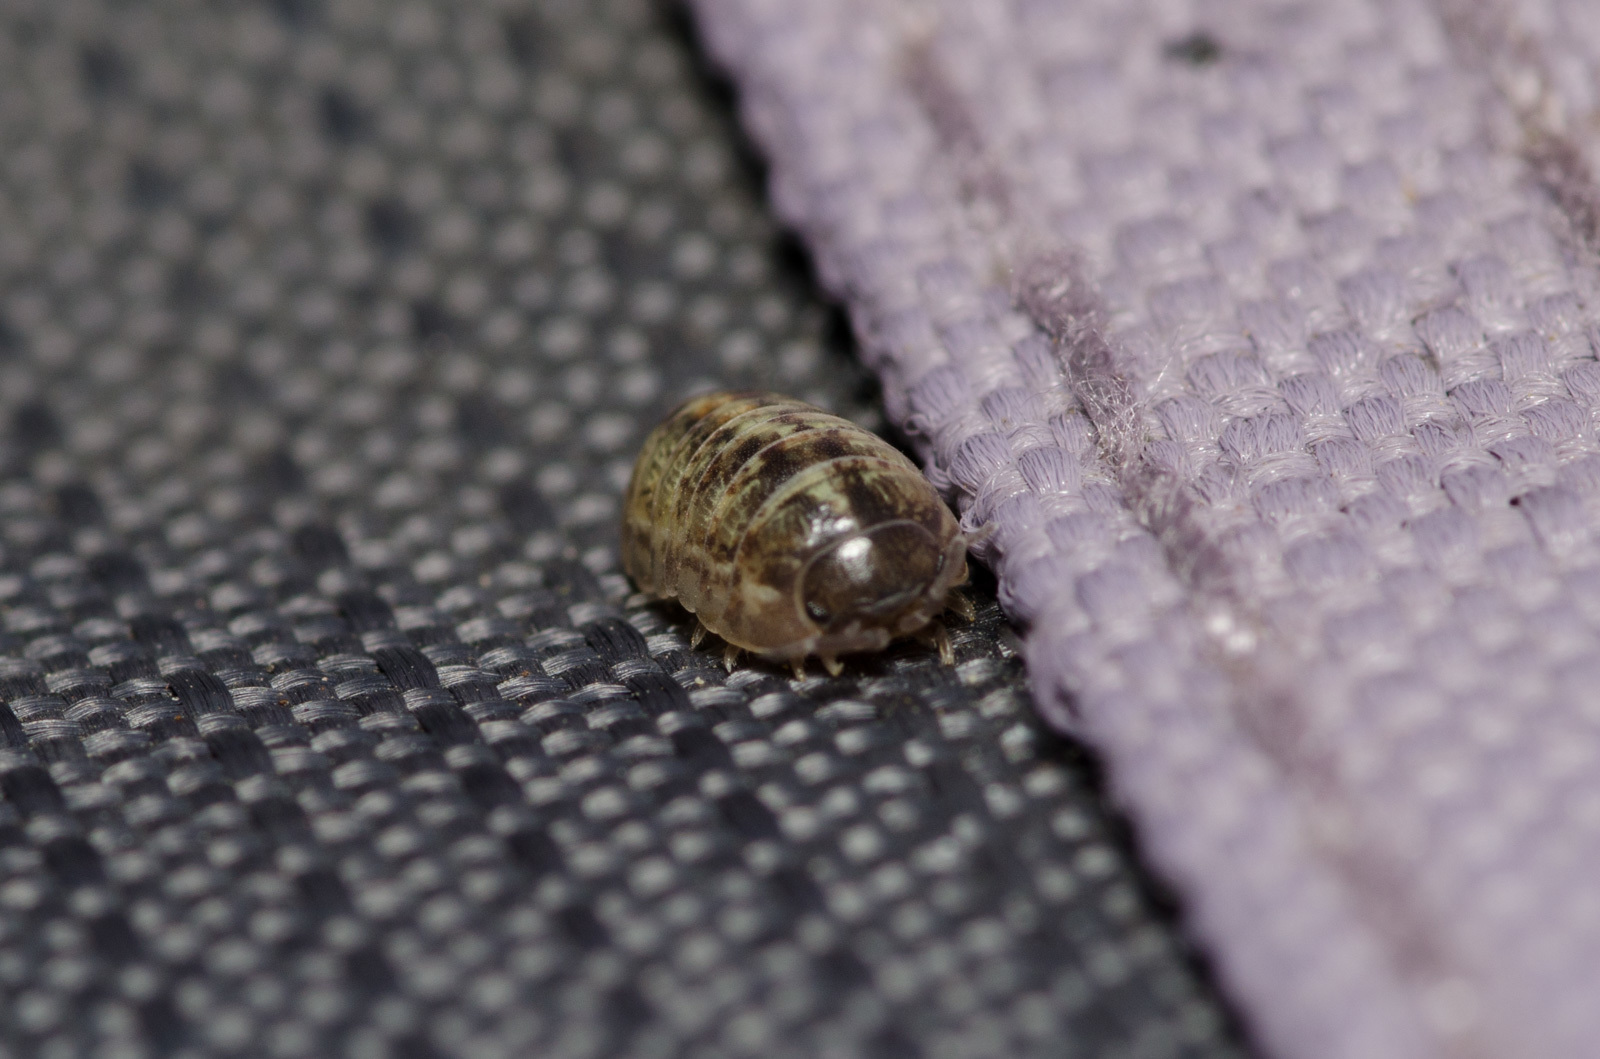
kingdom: Animalia
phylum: Arthropoda
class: Malacostraca
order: Isopoda
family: Armadillidiidae
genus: Armadillidium
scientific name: Armadillidium vulgare
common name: Common pill woodlouse
